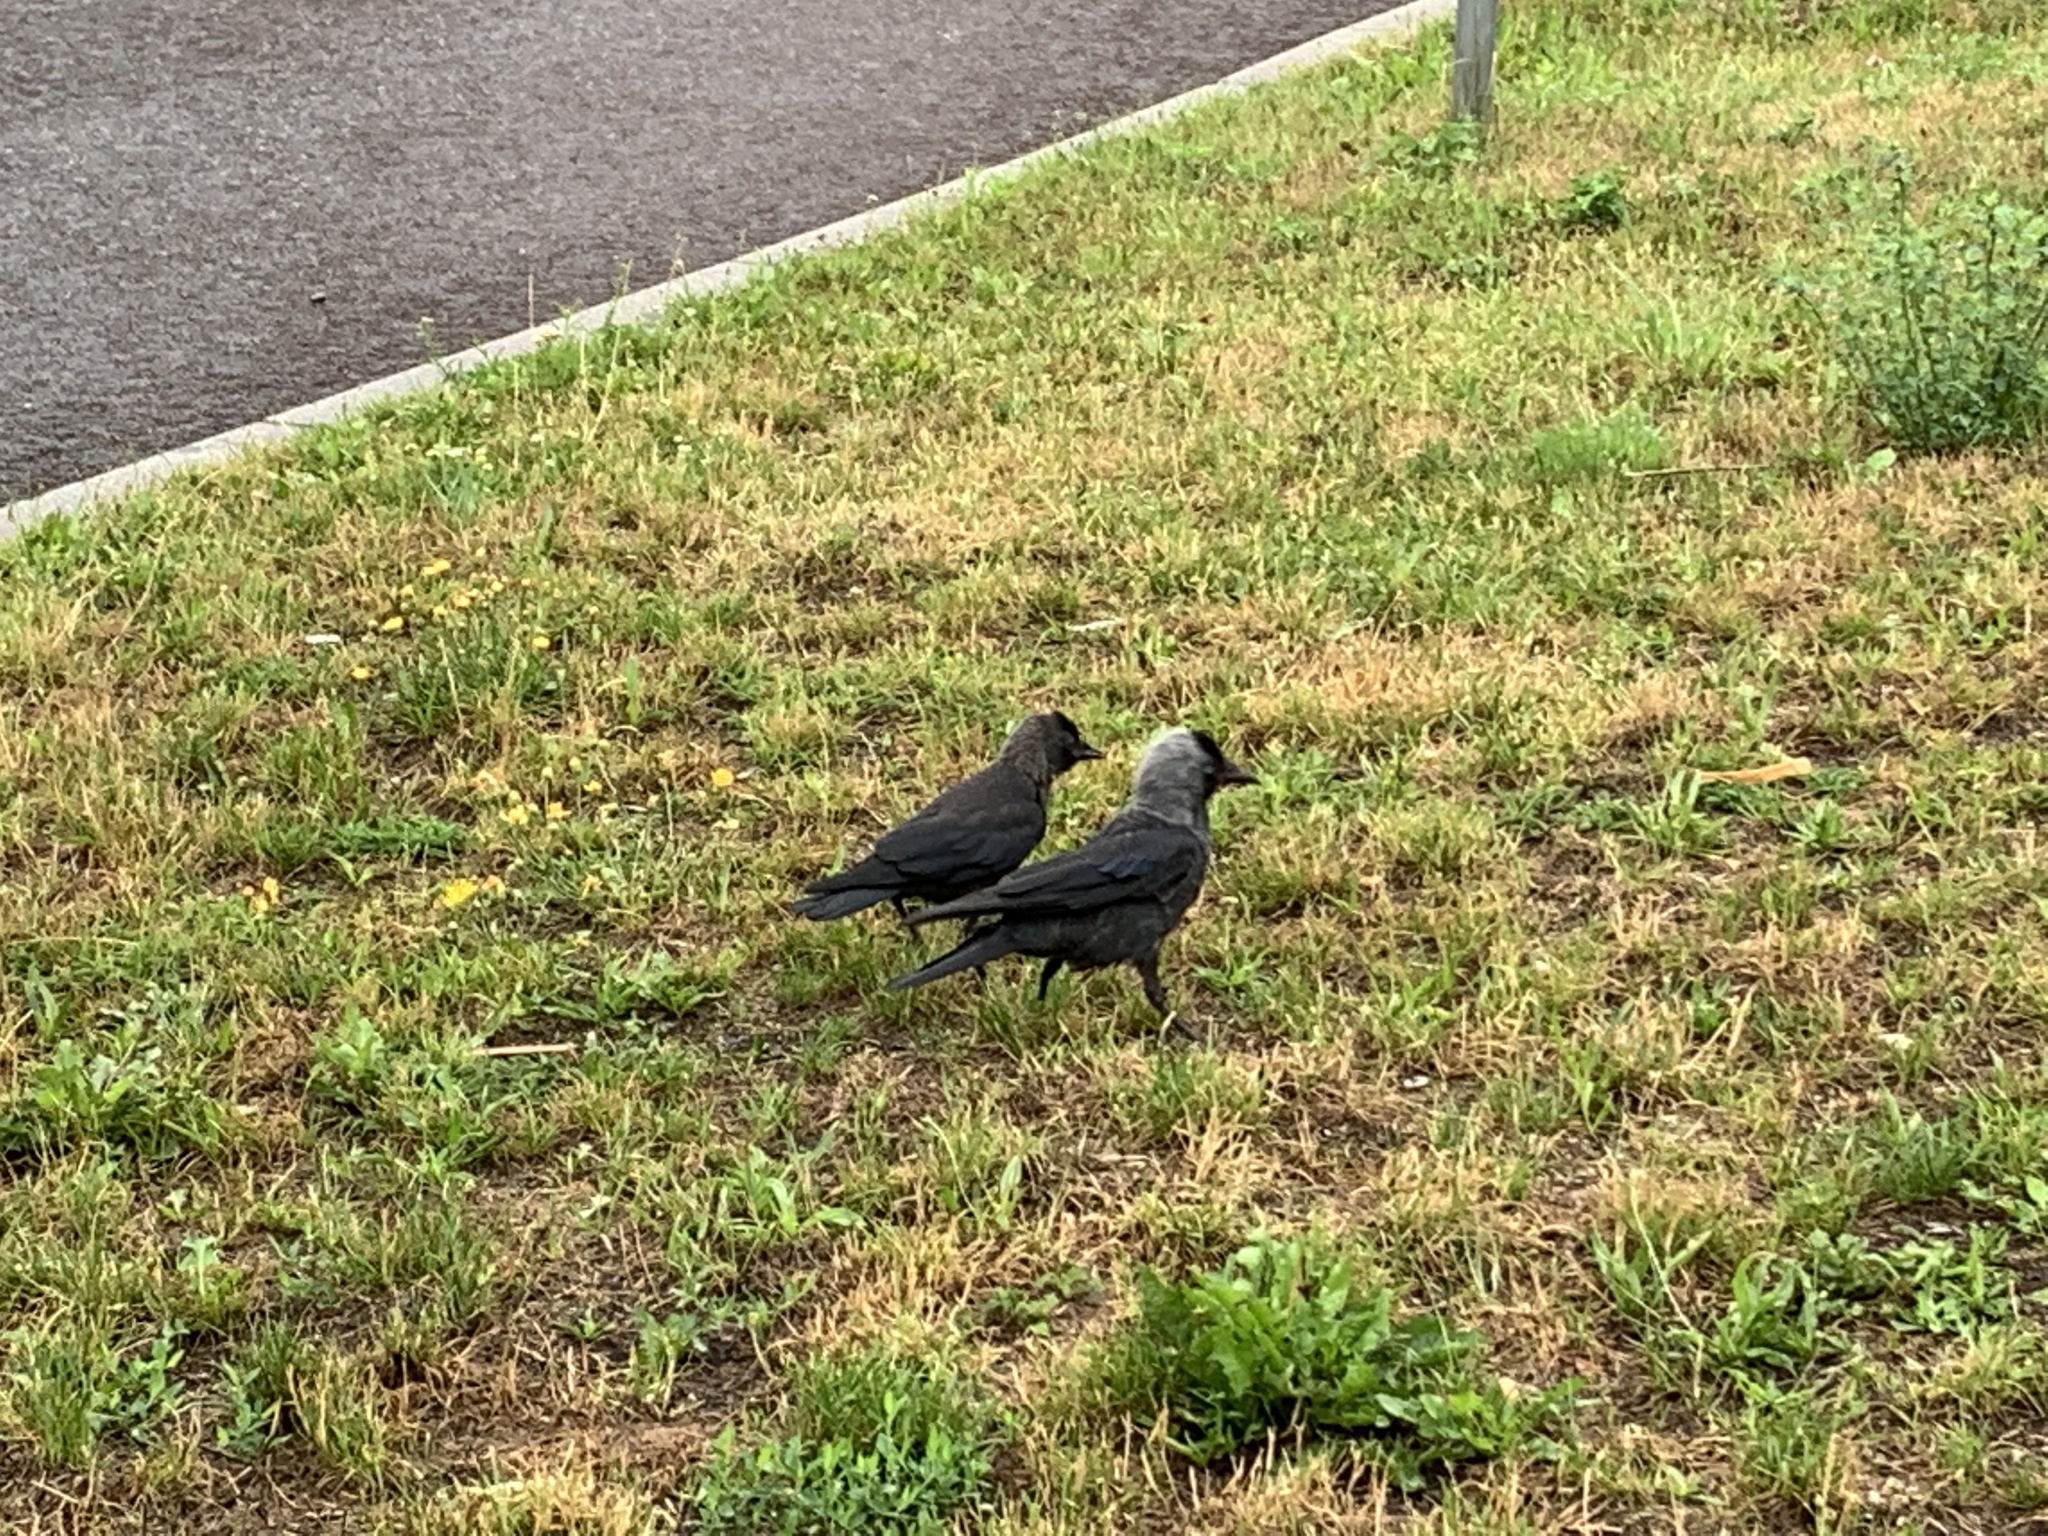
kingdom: Animalia
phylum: Chordata
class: Aves
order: Passeriformes
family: Corvidae
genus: Coloeus
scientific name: Coloeus monedula
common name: Western jackdaw
